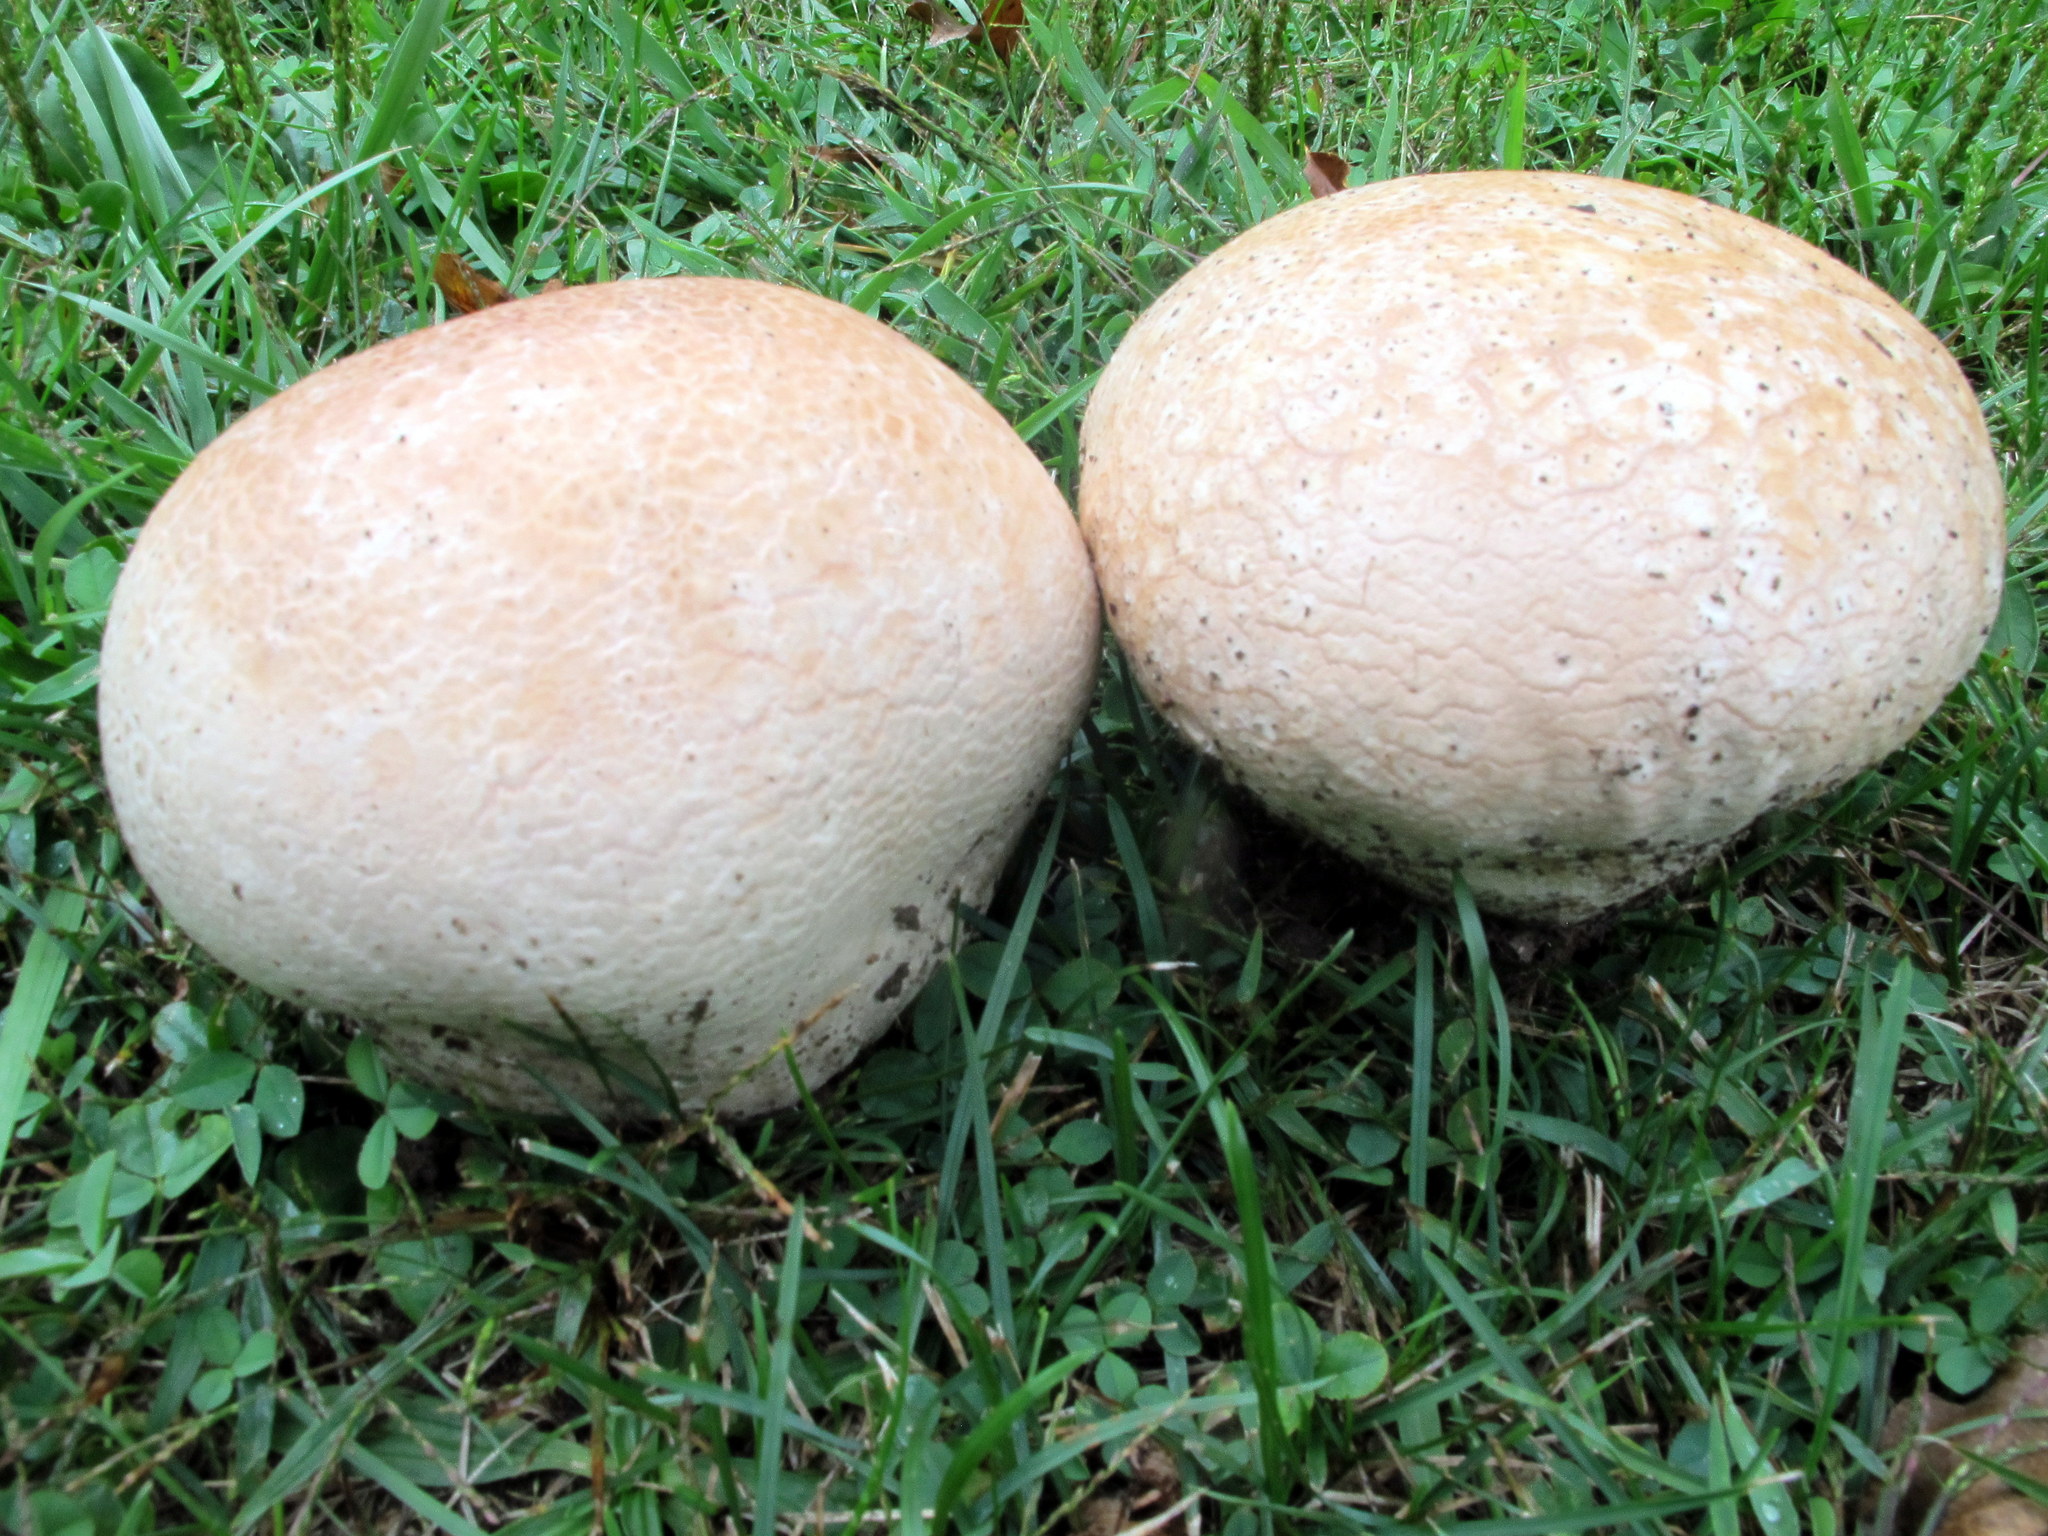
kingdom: Fungi
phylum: Basidiomycota
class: Agaricomycetes
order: Agaricales
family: Lycoperdaceae
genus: Calvatia
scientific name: Calvatia cyathiformis
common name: Purple-spored puffball
